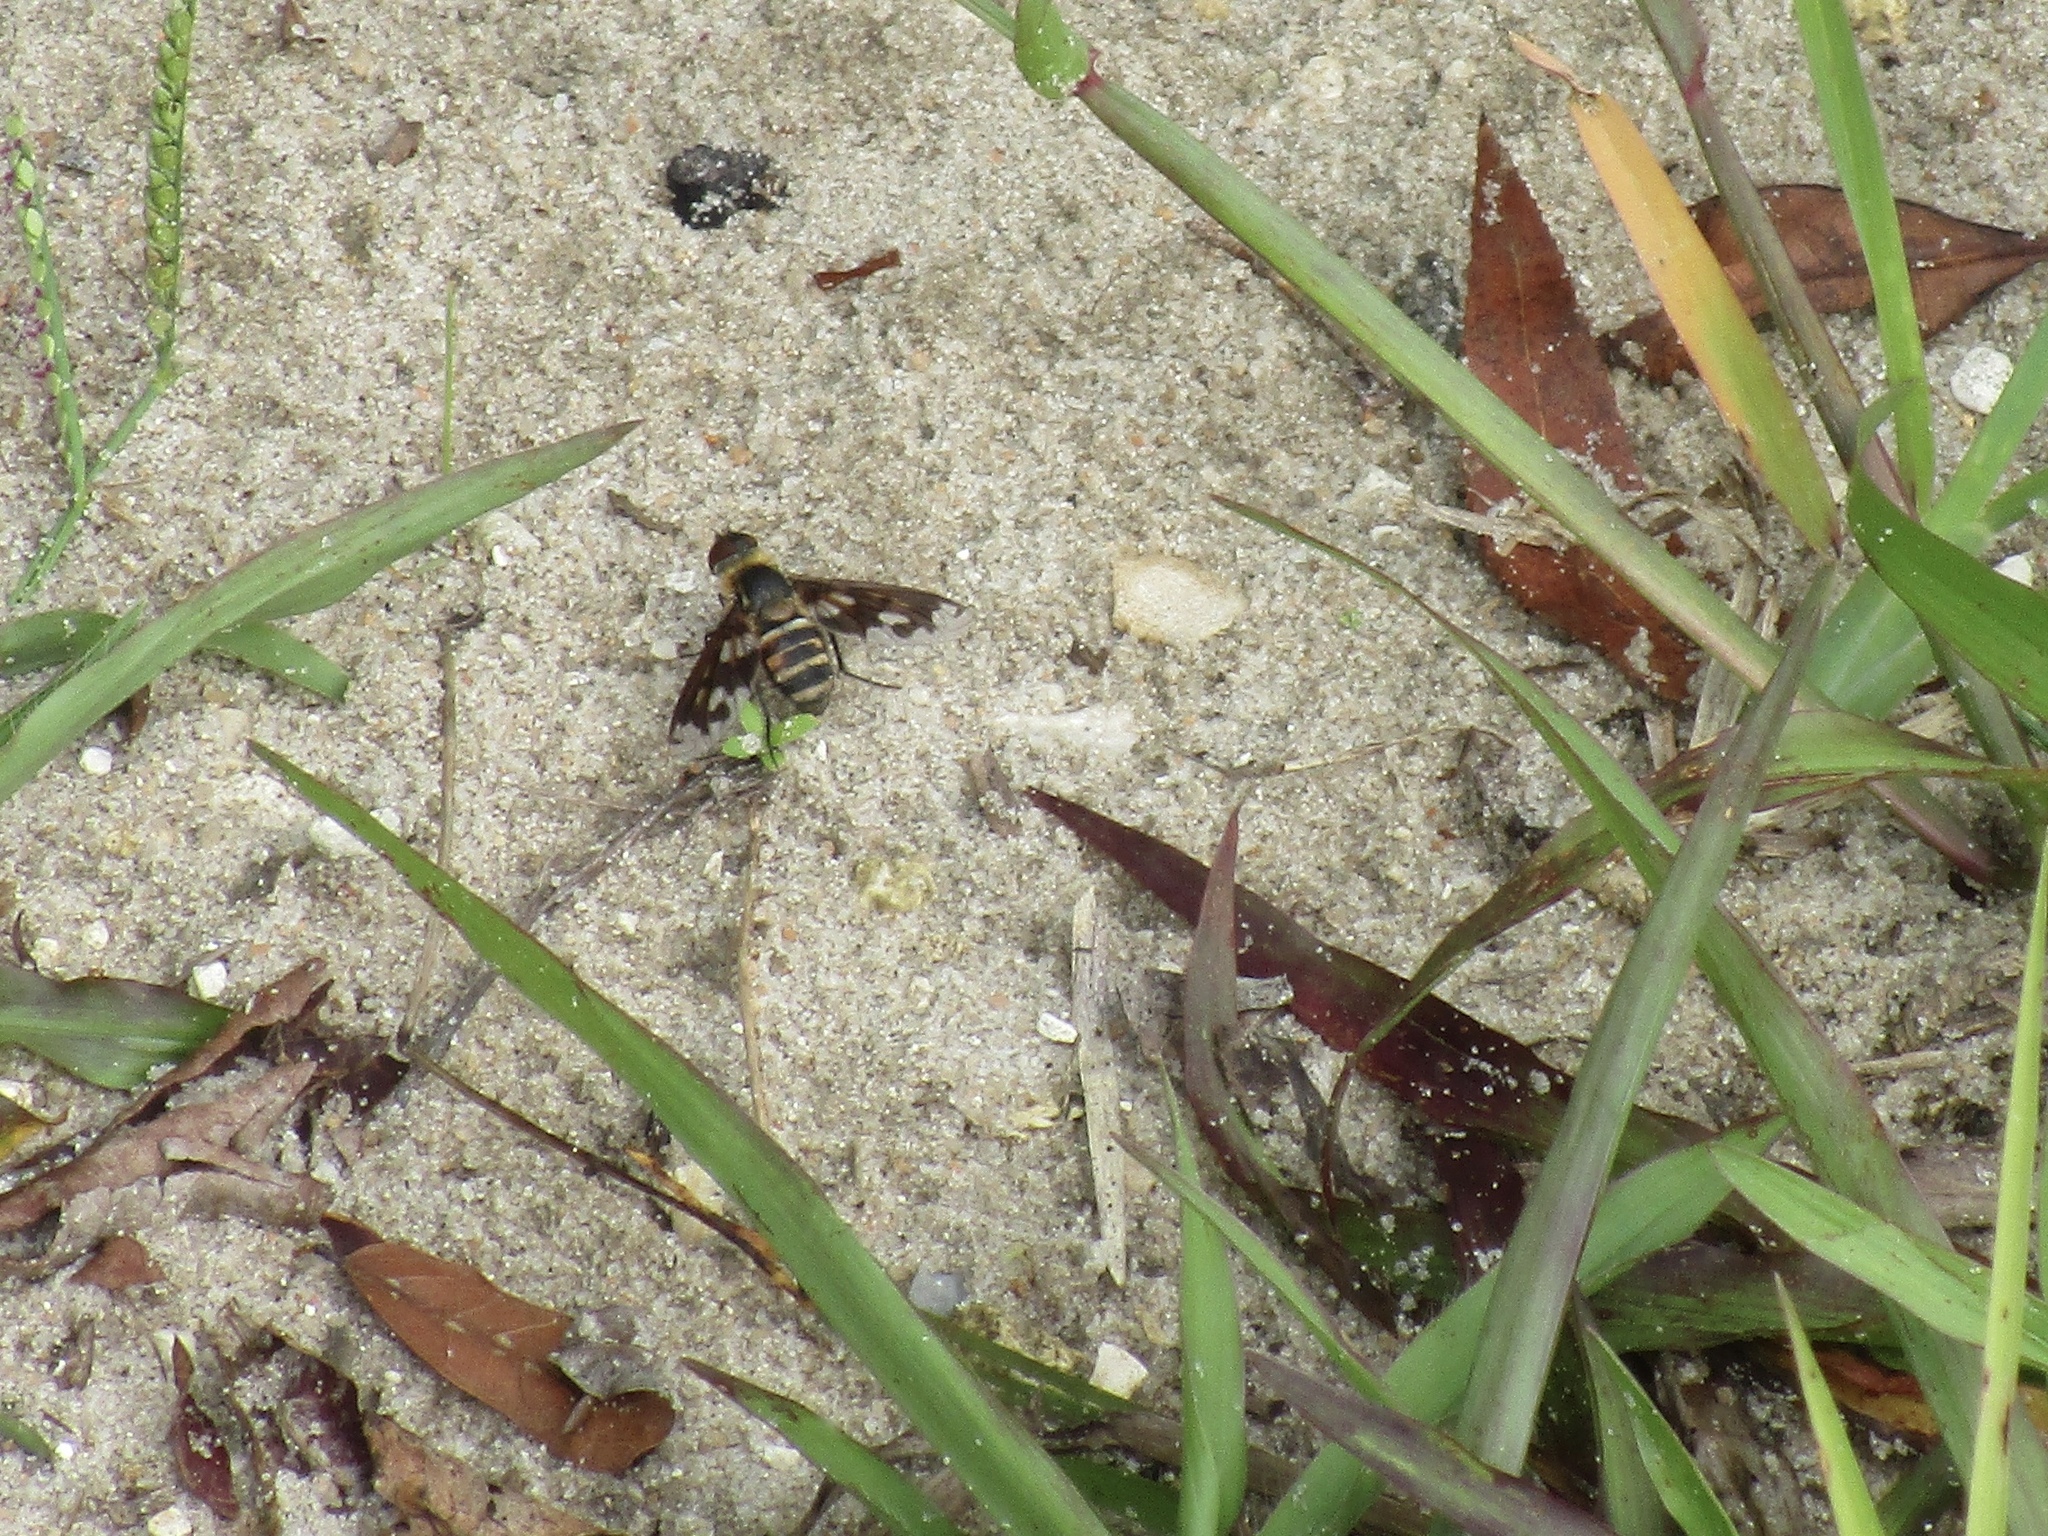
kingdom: Animalia
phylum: Arthropoda
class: Insecta
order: Diptera
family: Bombyliidae
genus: Exoprosopa
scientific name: Exoprosopa fascipennis
